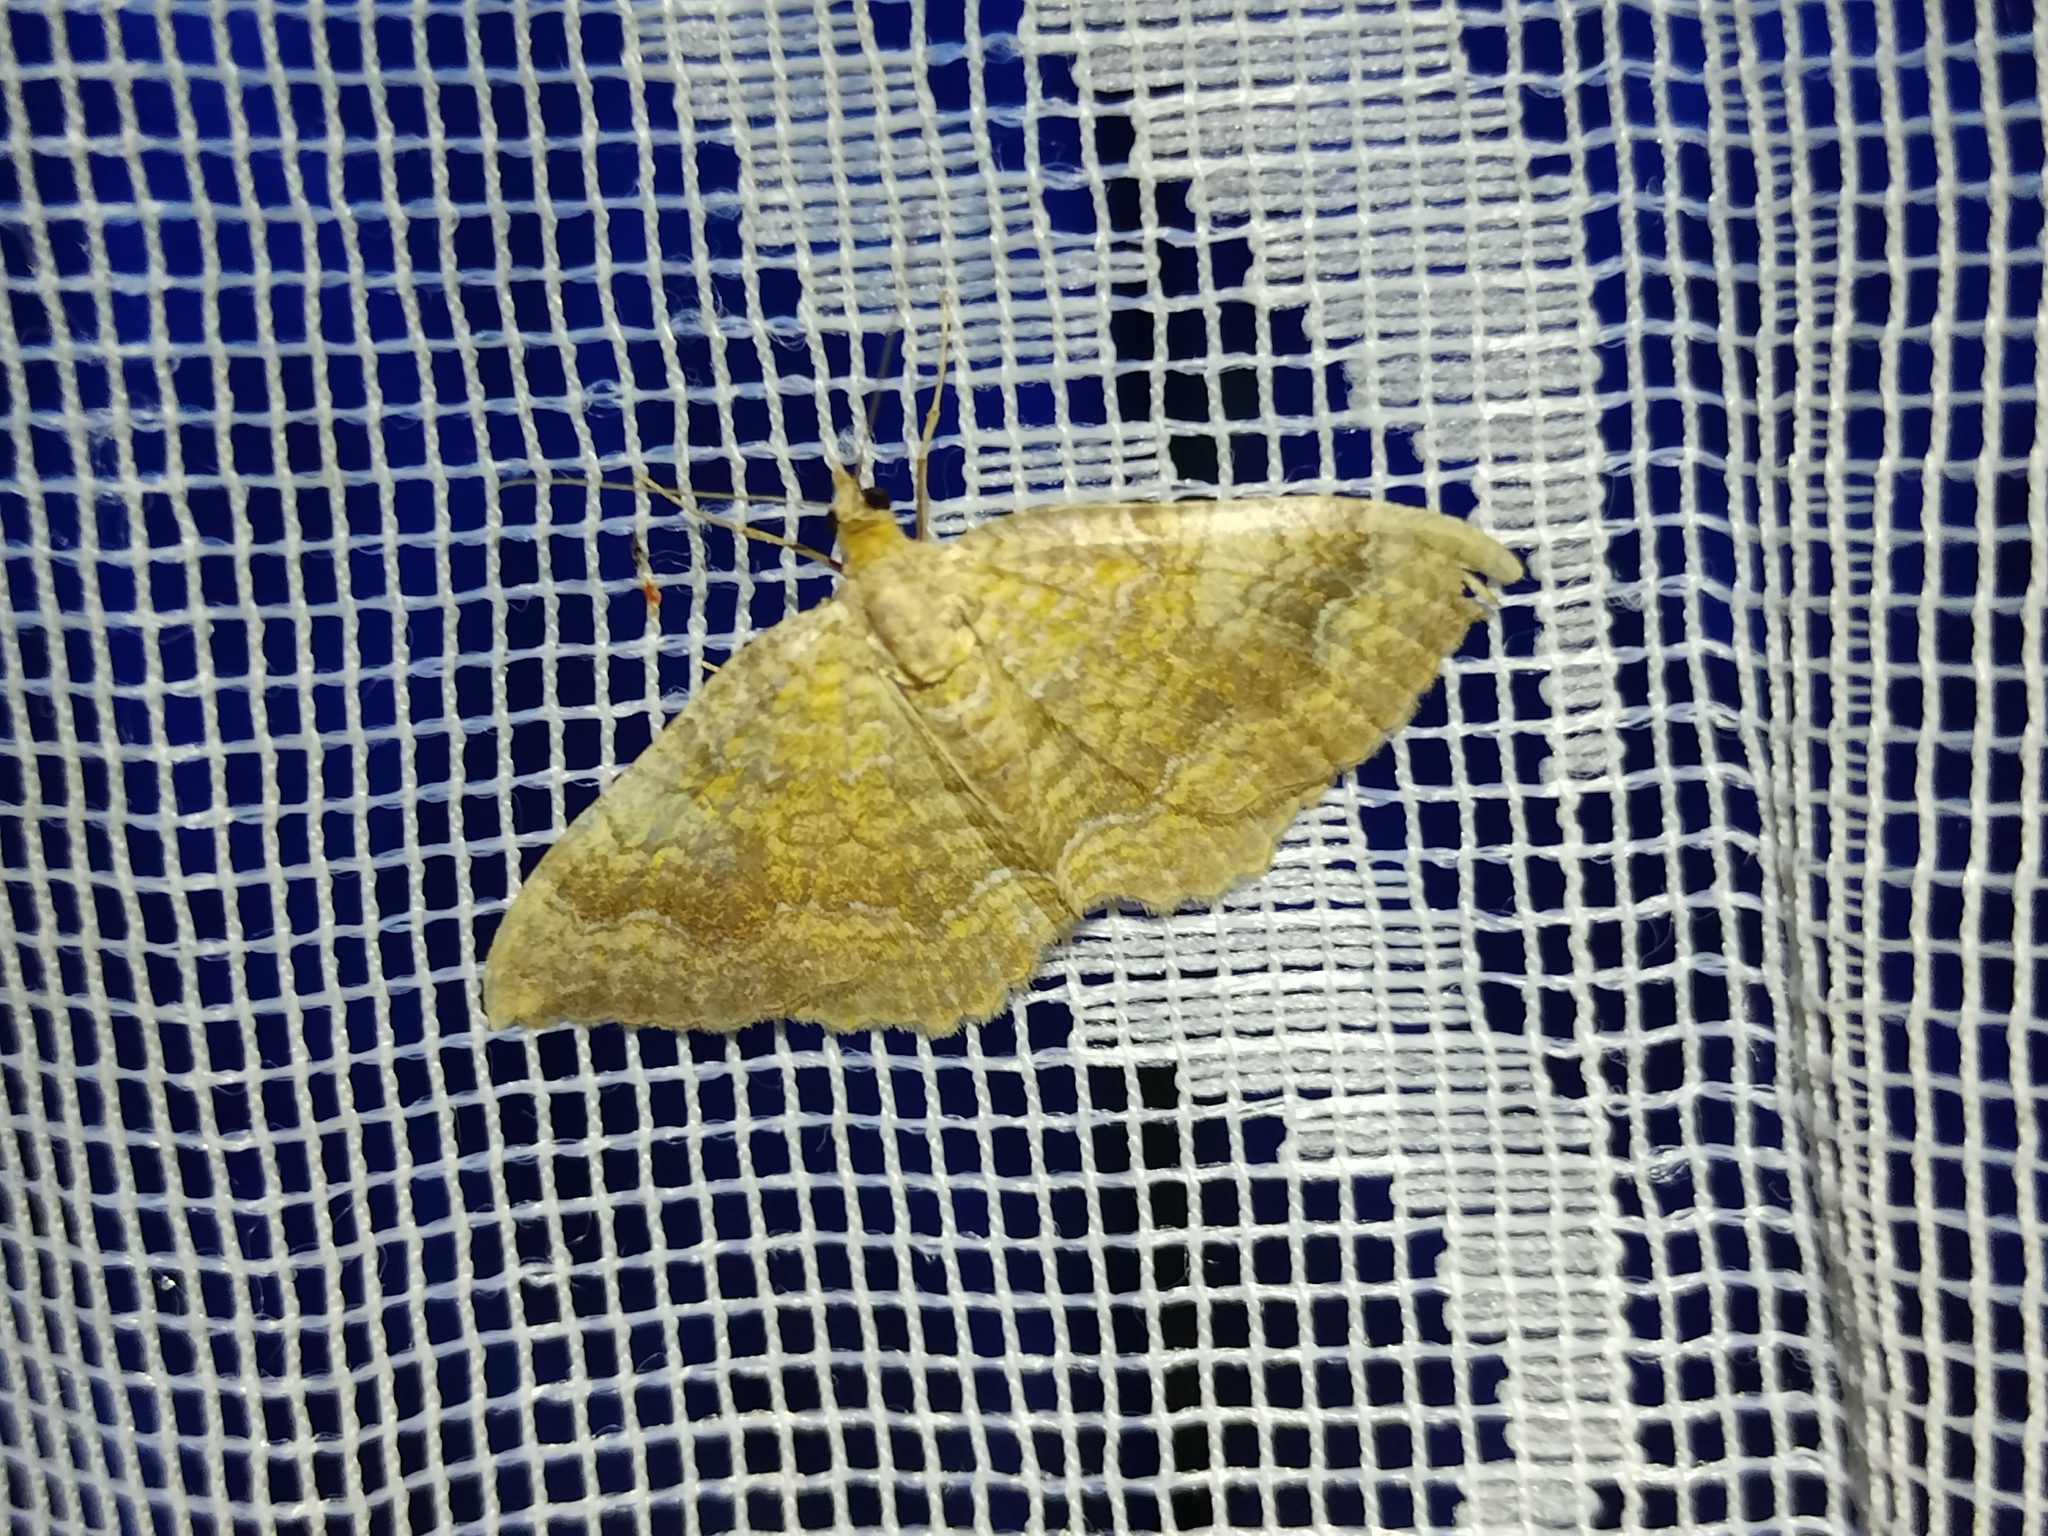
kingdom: Animalia
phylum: Arthropoda
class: Insecta
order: Lepidoptera
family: Geometridae
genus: Camptogramma
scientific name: Camptogramma bilineata
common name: Yellow shell
